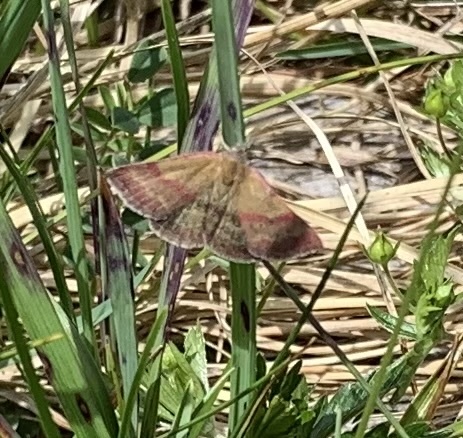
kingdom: Animalia
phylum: Arthropoda
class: Insecta
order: Lepidoptera
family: Erebidae
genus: Phytometra
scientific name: Phytometra viridaria
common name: Small purple-barred
